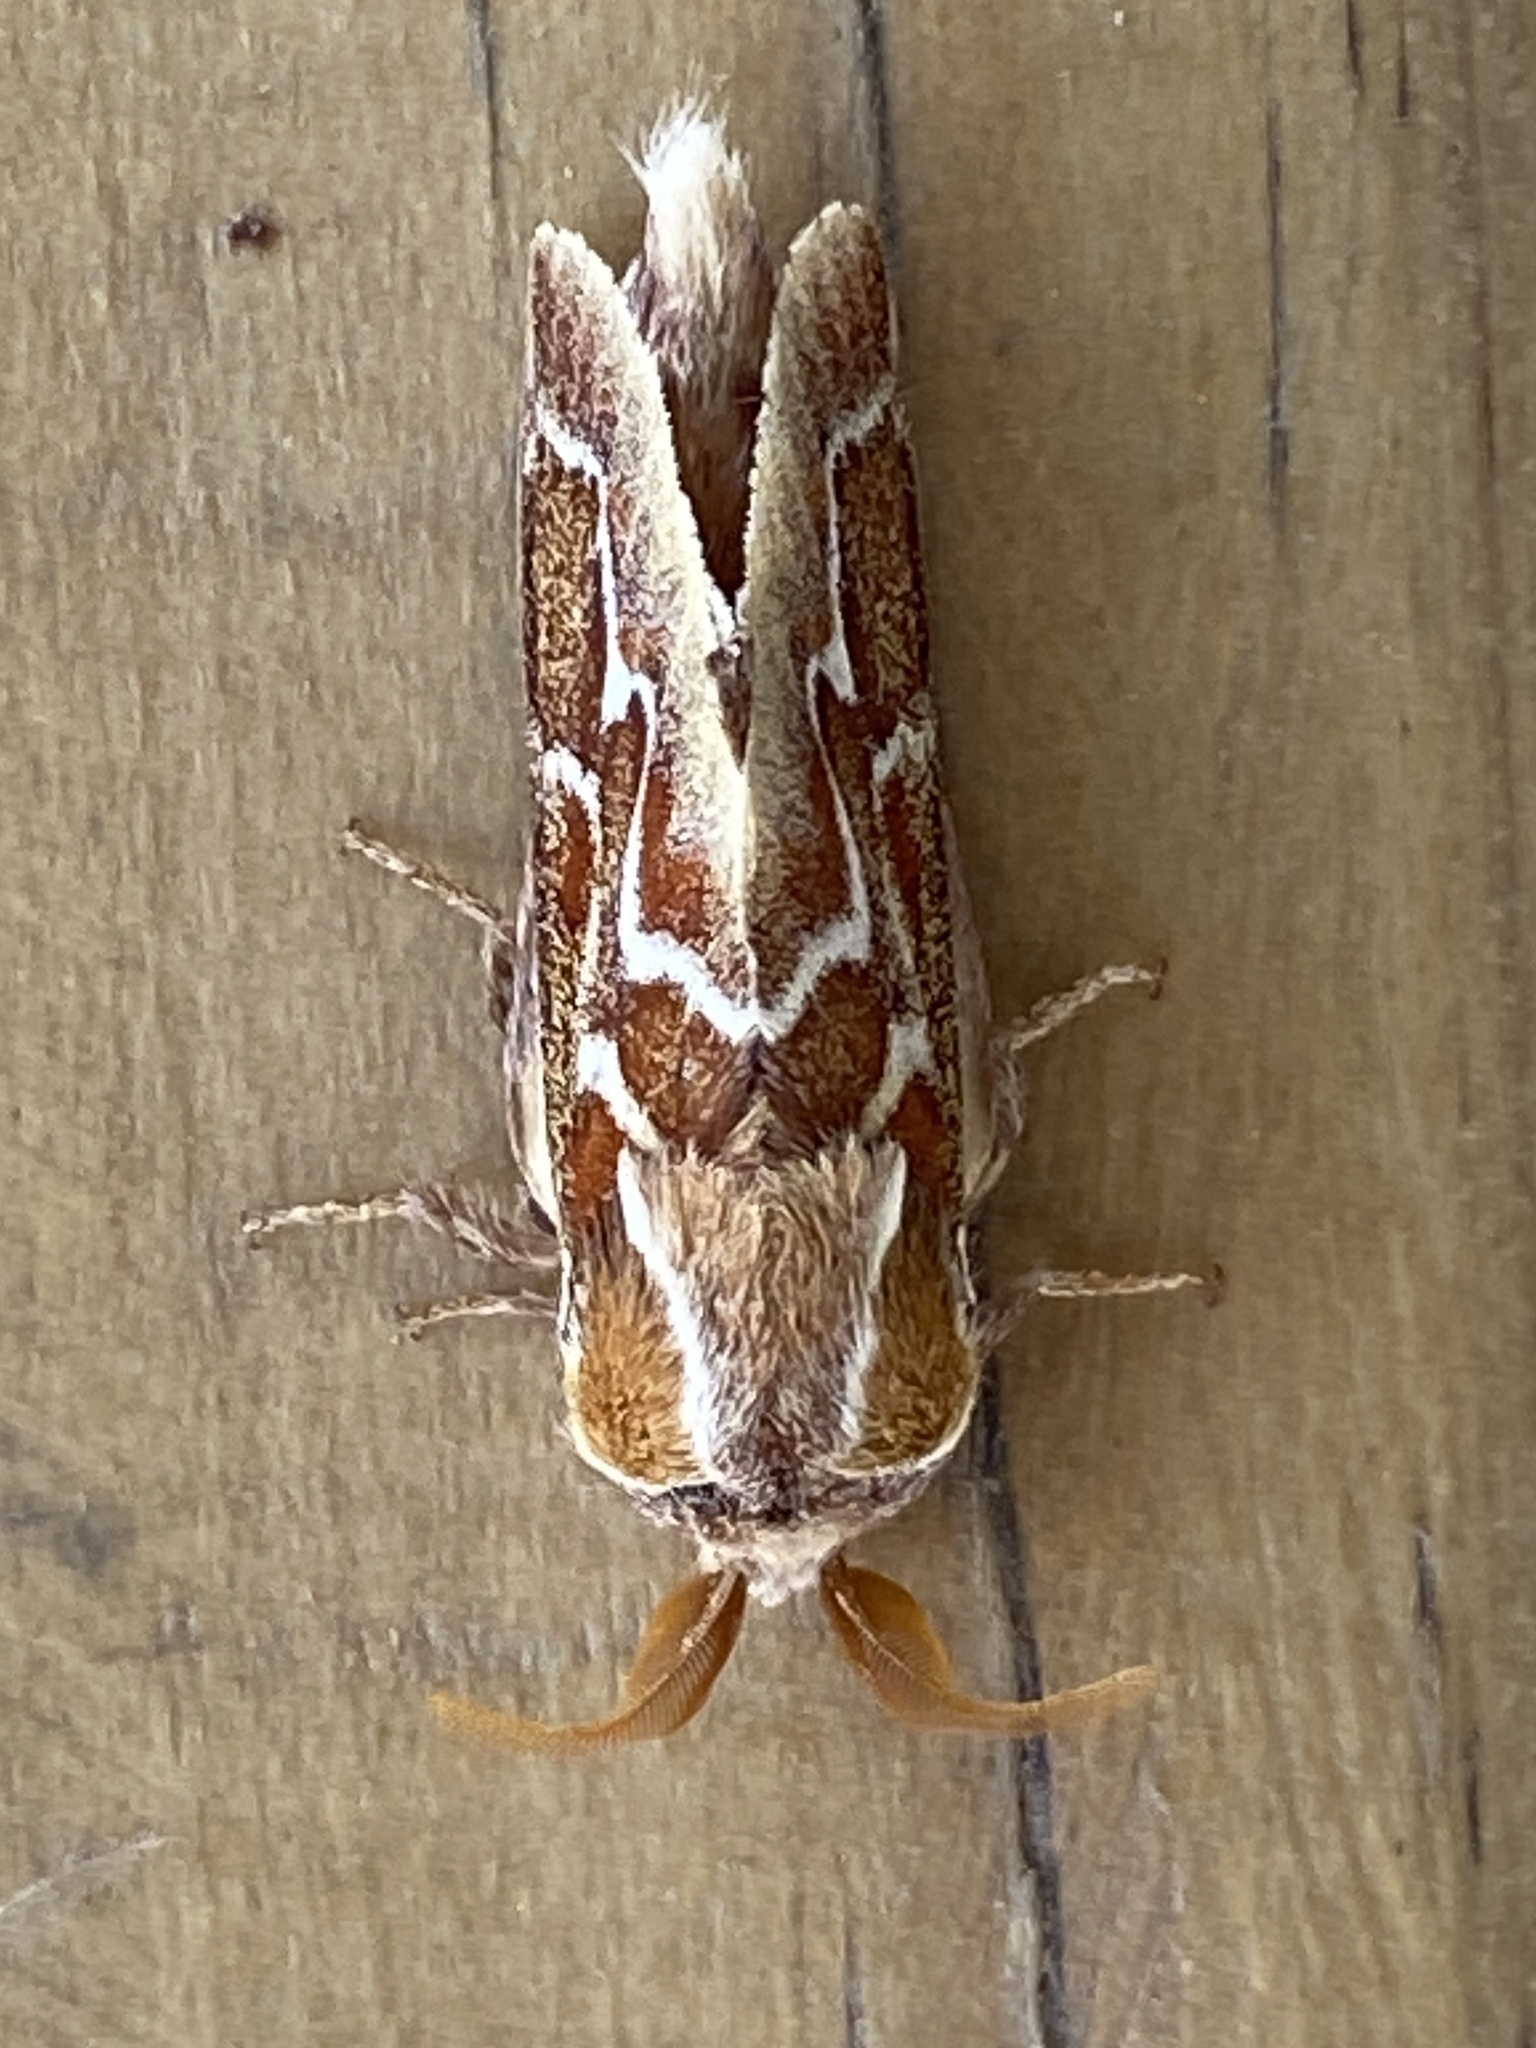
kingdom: Animalia
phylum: Arthropoda
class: Insecta
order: Lepidoptera
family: Lasiocampidae
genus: Streblote
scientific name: Streblote cristata
